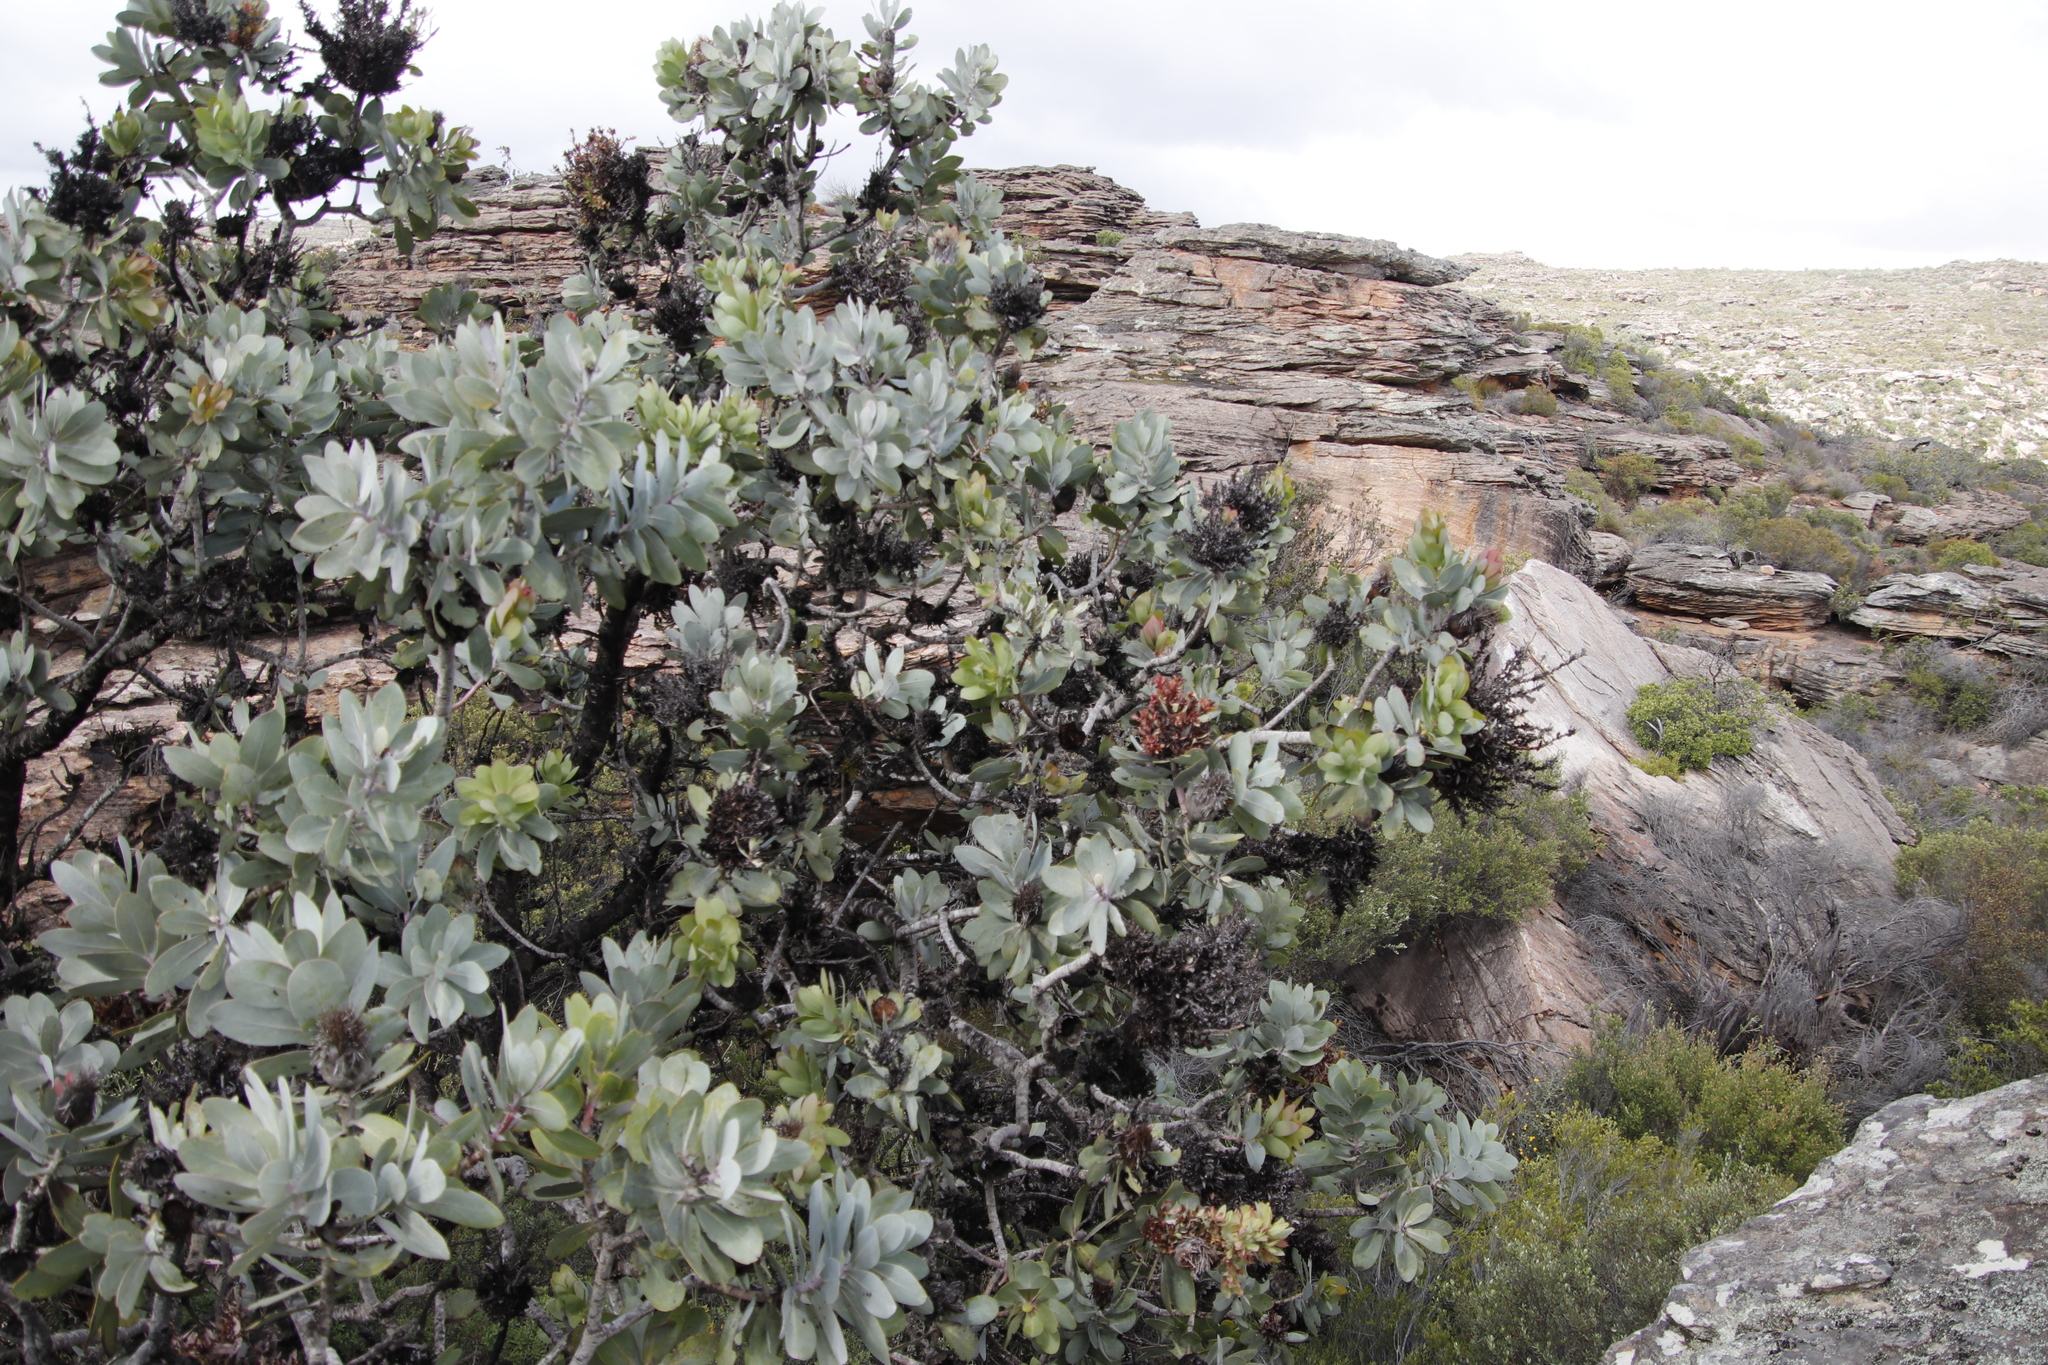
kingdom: Plantae
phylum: Tracheophyta
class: Magnoliopsida
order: Proteales
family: Proteaceae
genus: Protea
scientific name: Protea nitida
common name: Tree protea
